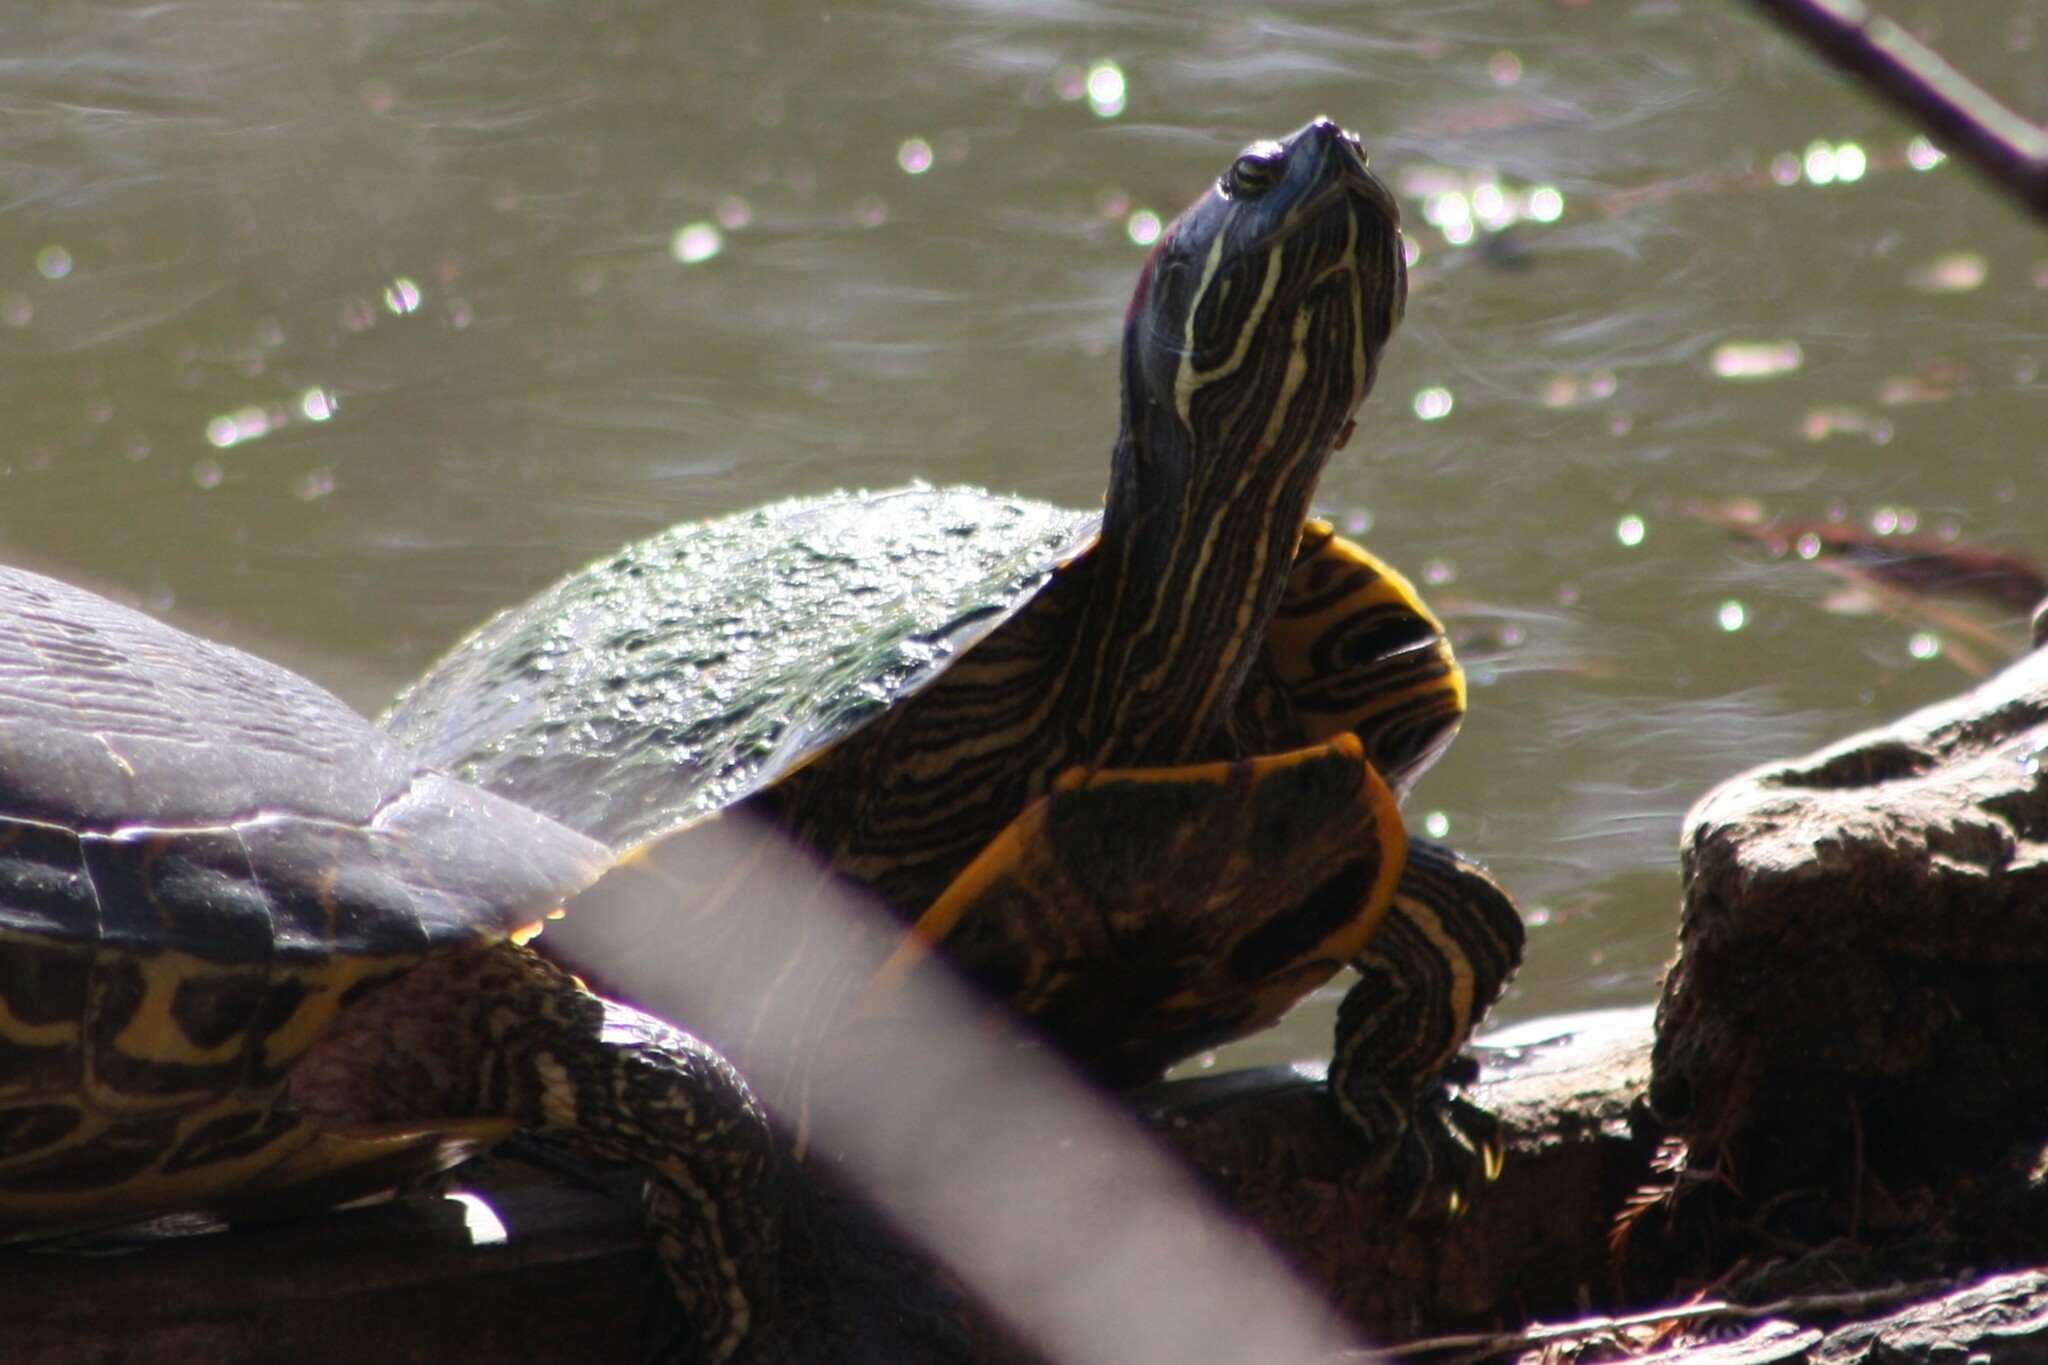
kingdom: Animalia
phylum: Chordata
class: Testudines
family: Emydidae
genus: Trachemys
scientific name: Trachemys scripta
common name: Slider
